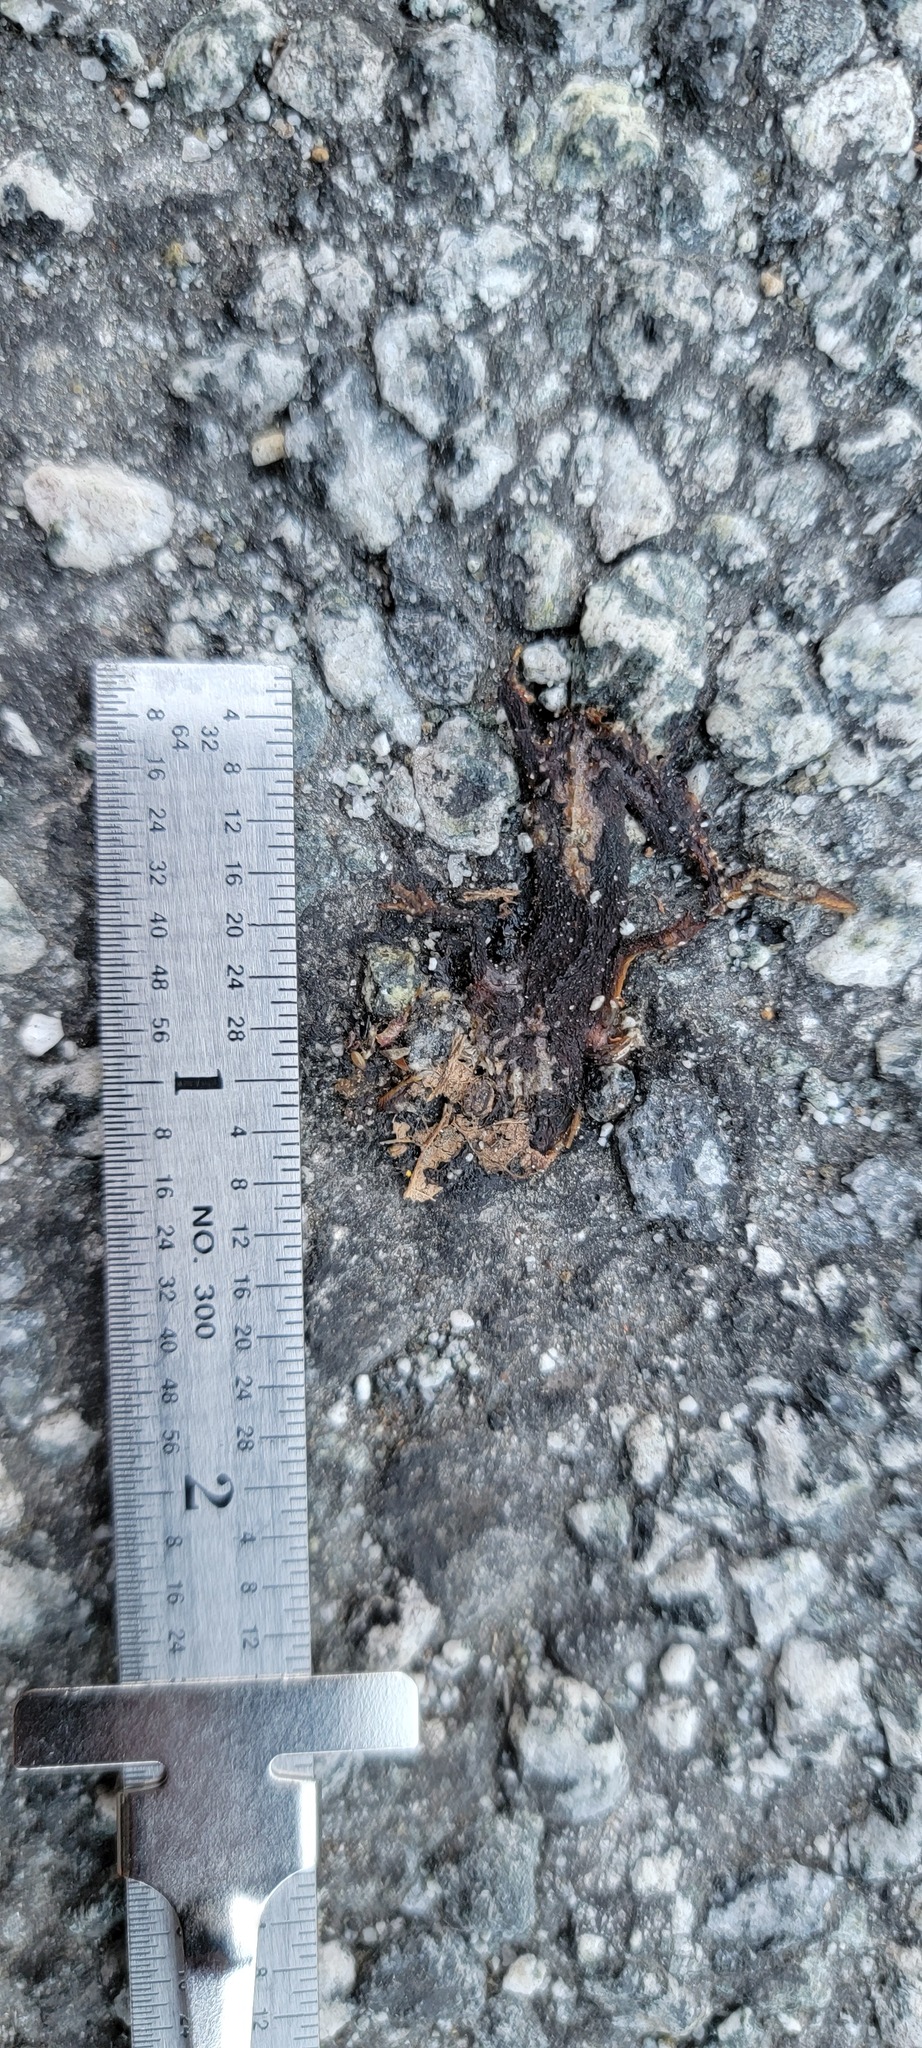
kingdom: Animalia
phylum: Chordata
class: Amphibia
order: Caudata
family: Salamandridae
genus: Taricha
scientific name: Taricha
